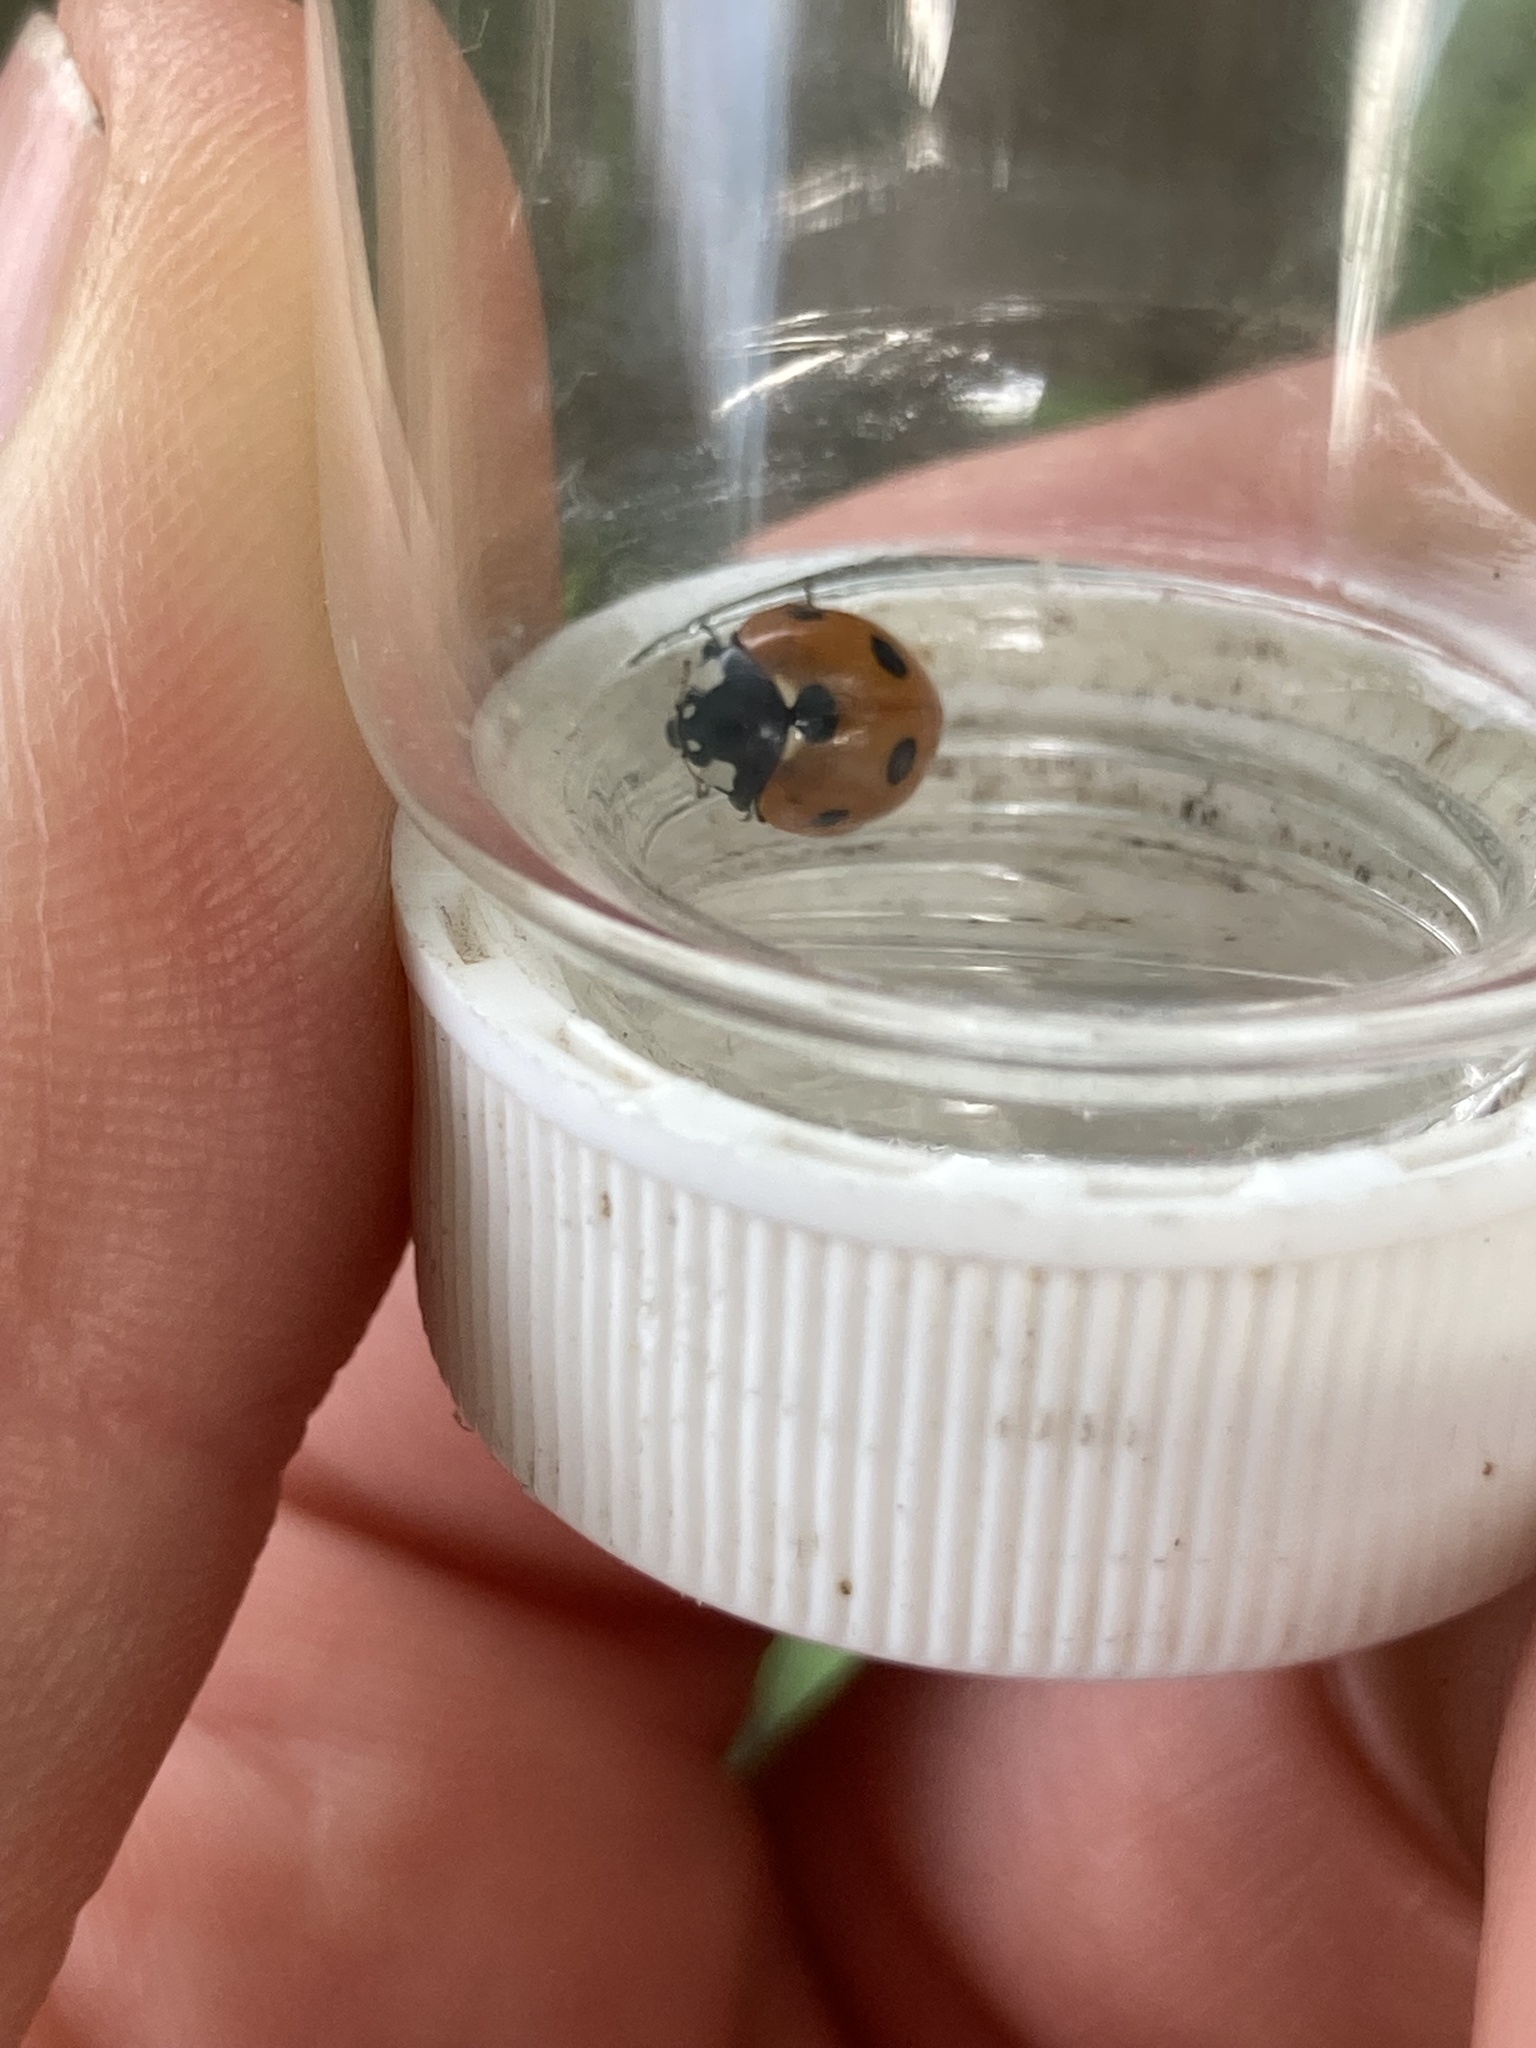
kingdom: Animalia
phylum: Arthropoda
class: Insecta
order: Coleoptera
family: Coccinellidae
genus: Coccinella
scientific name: Coccinella septempunctata
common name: Sevenspotted lady beetle
